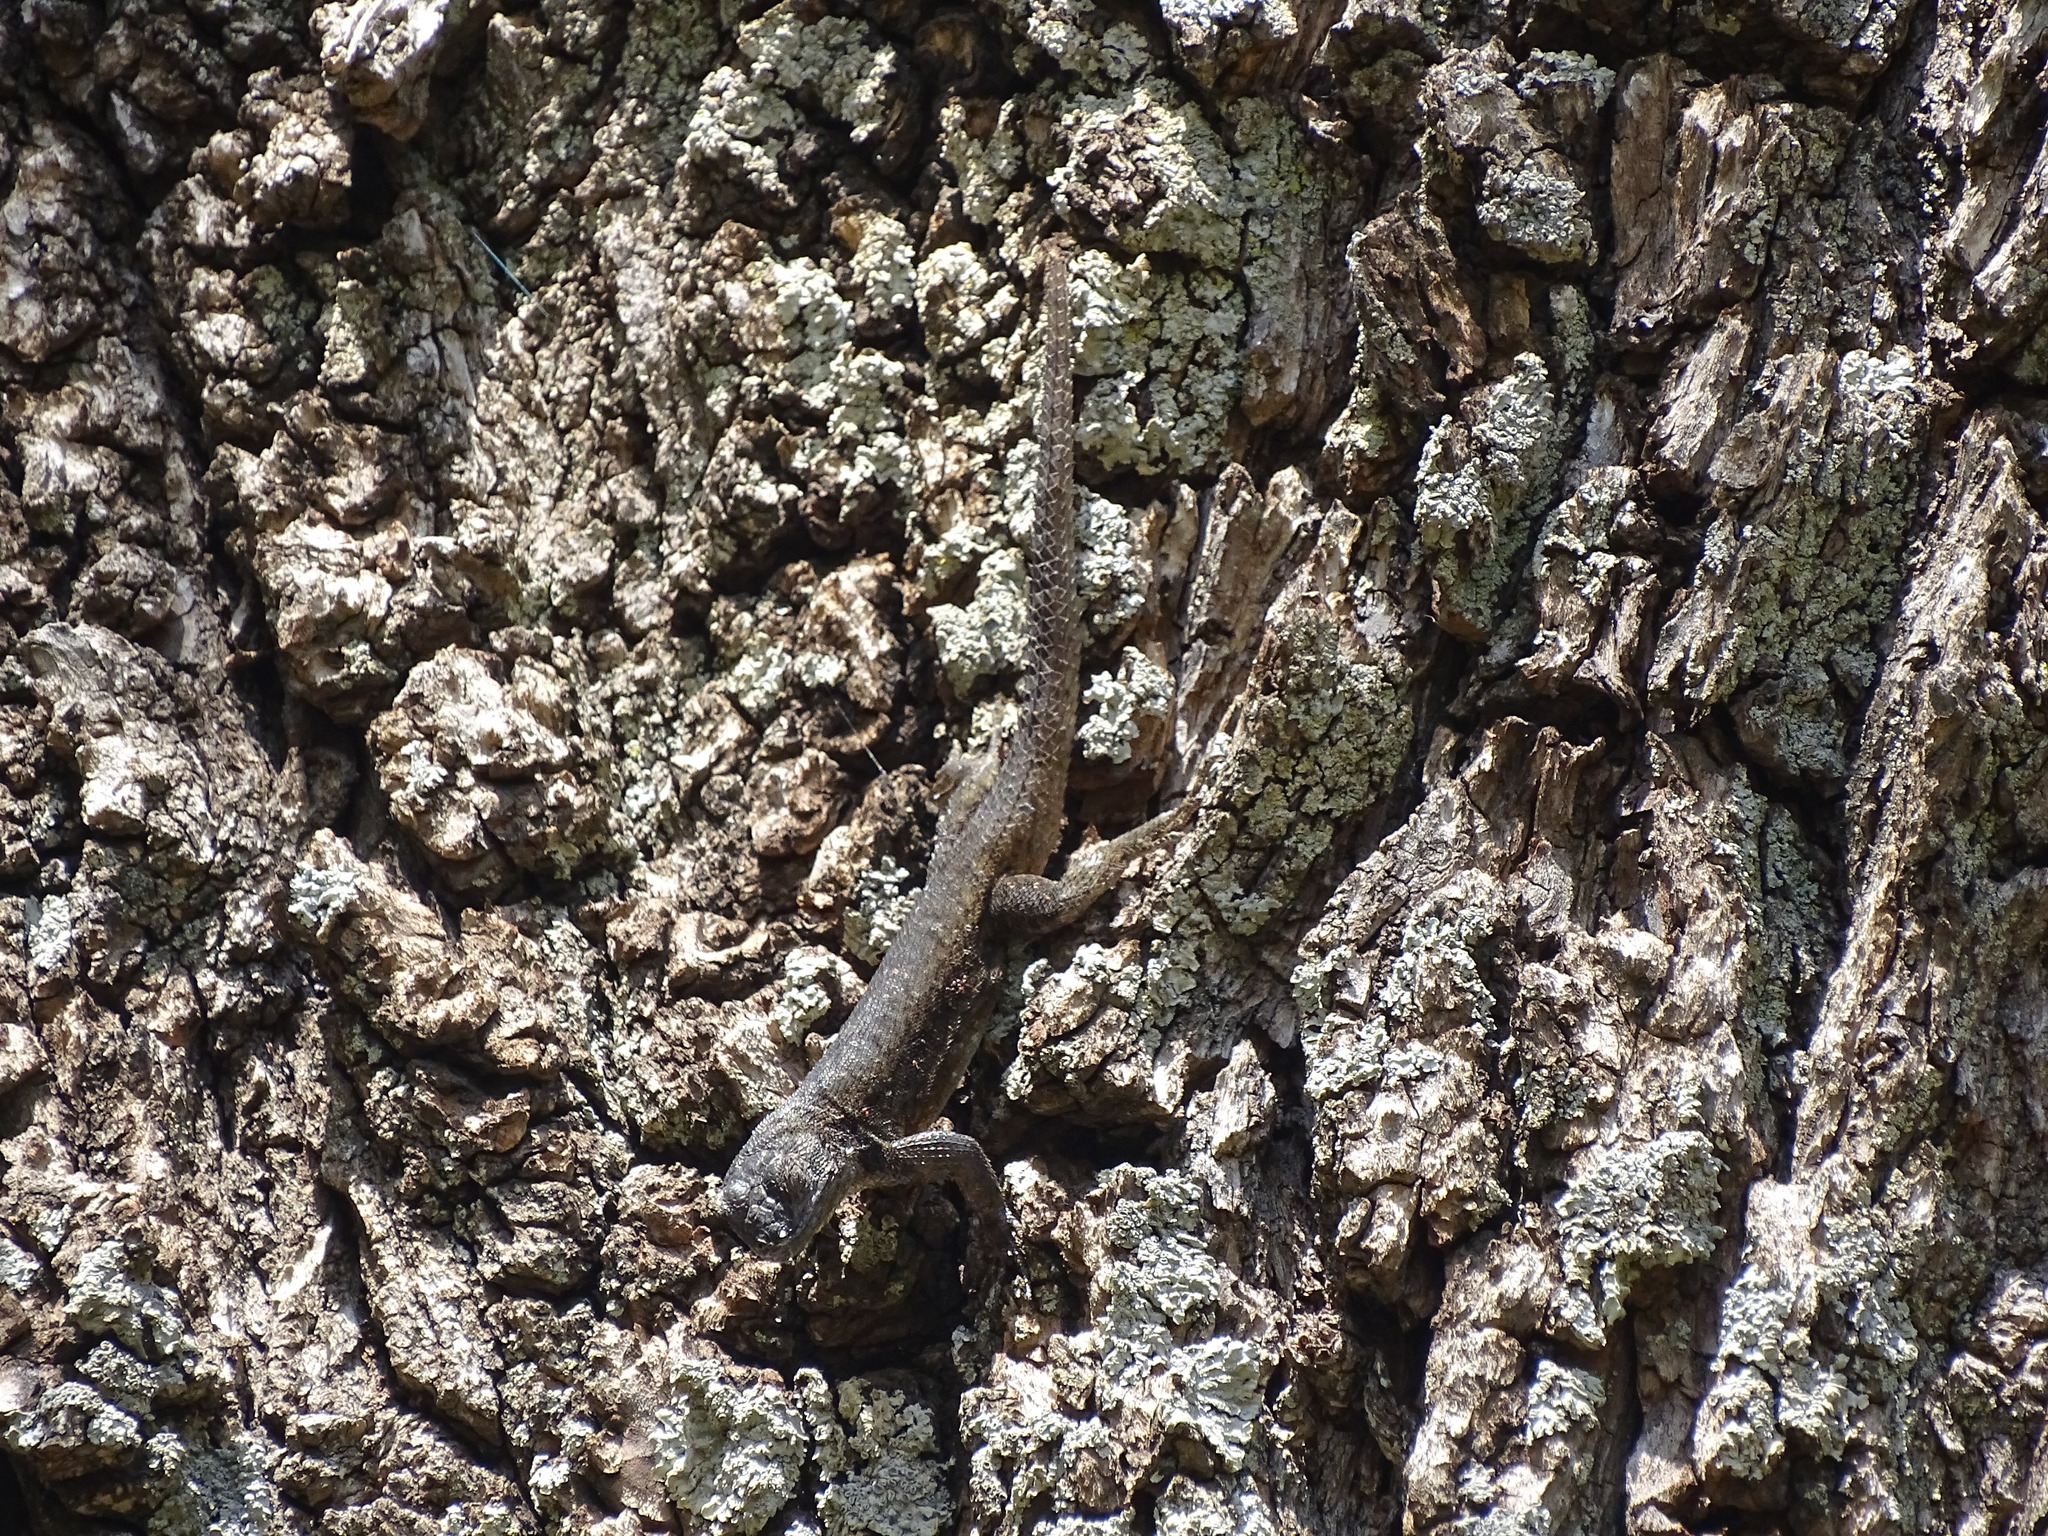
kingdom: Animalia
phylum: Chordata
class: Squamata
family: Phrynosomatidae
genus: Sceloporus
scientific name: Sceloporus grammicus
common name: Mesquite lizard
